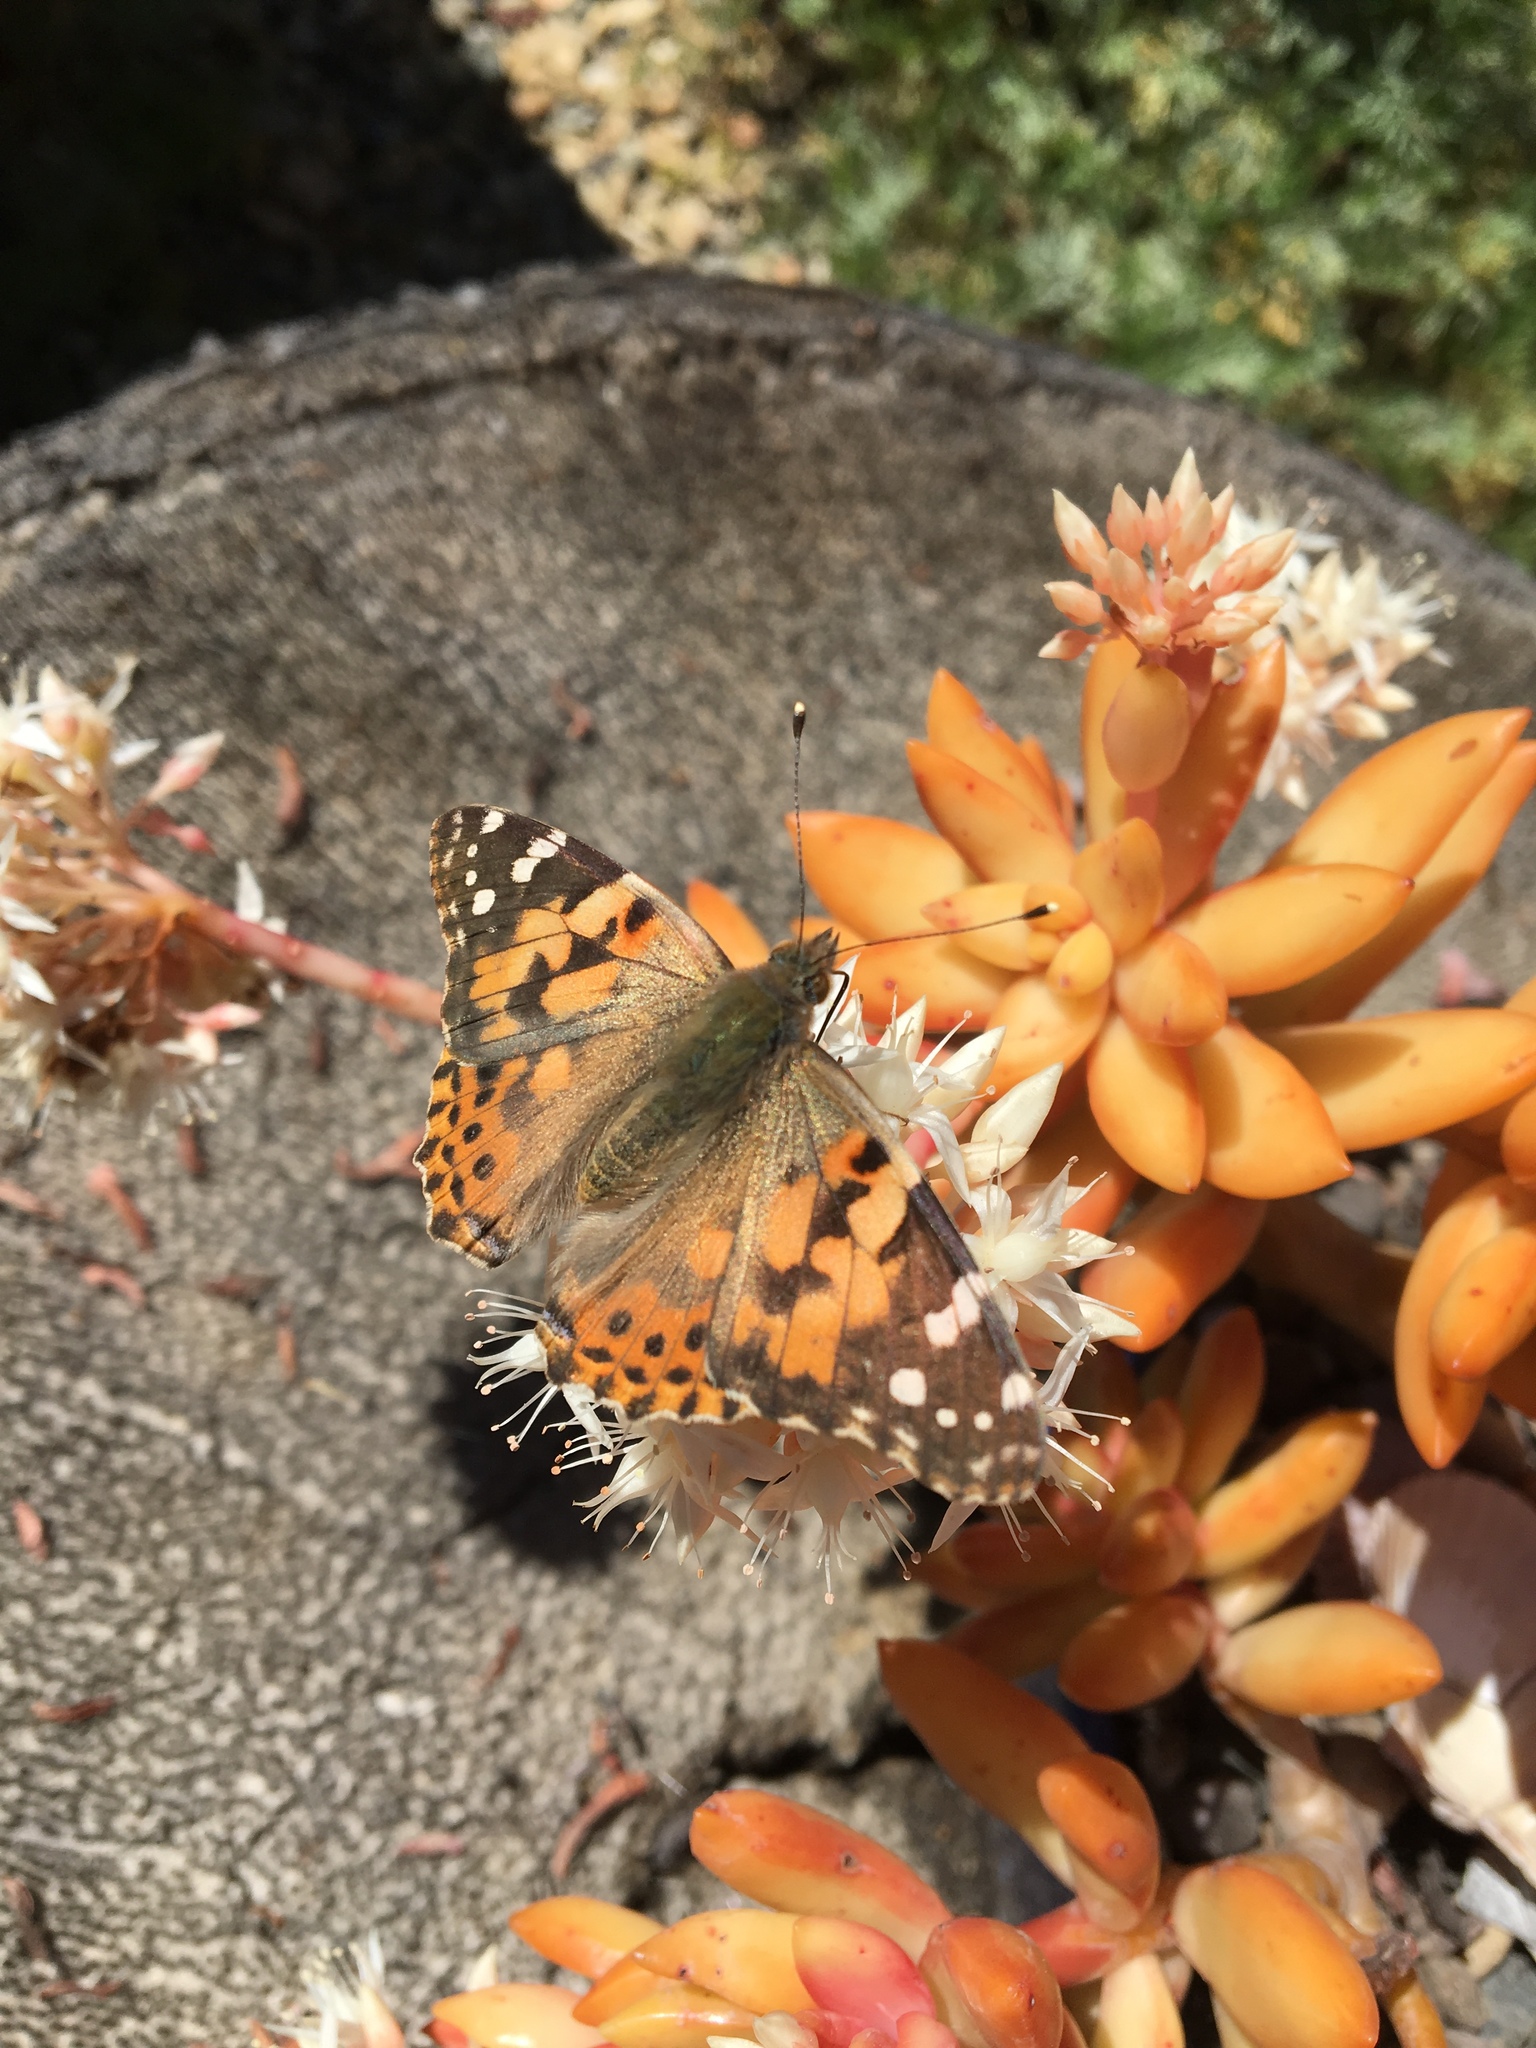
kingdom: Animalia
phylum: Arthropoda
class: Insecta
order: Lepidoptera
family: Nymphalidae
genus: Vanessa
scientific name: Vanessa cardui
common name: Painted lady
